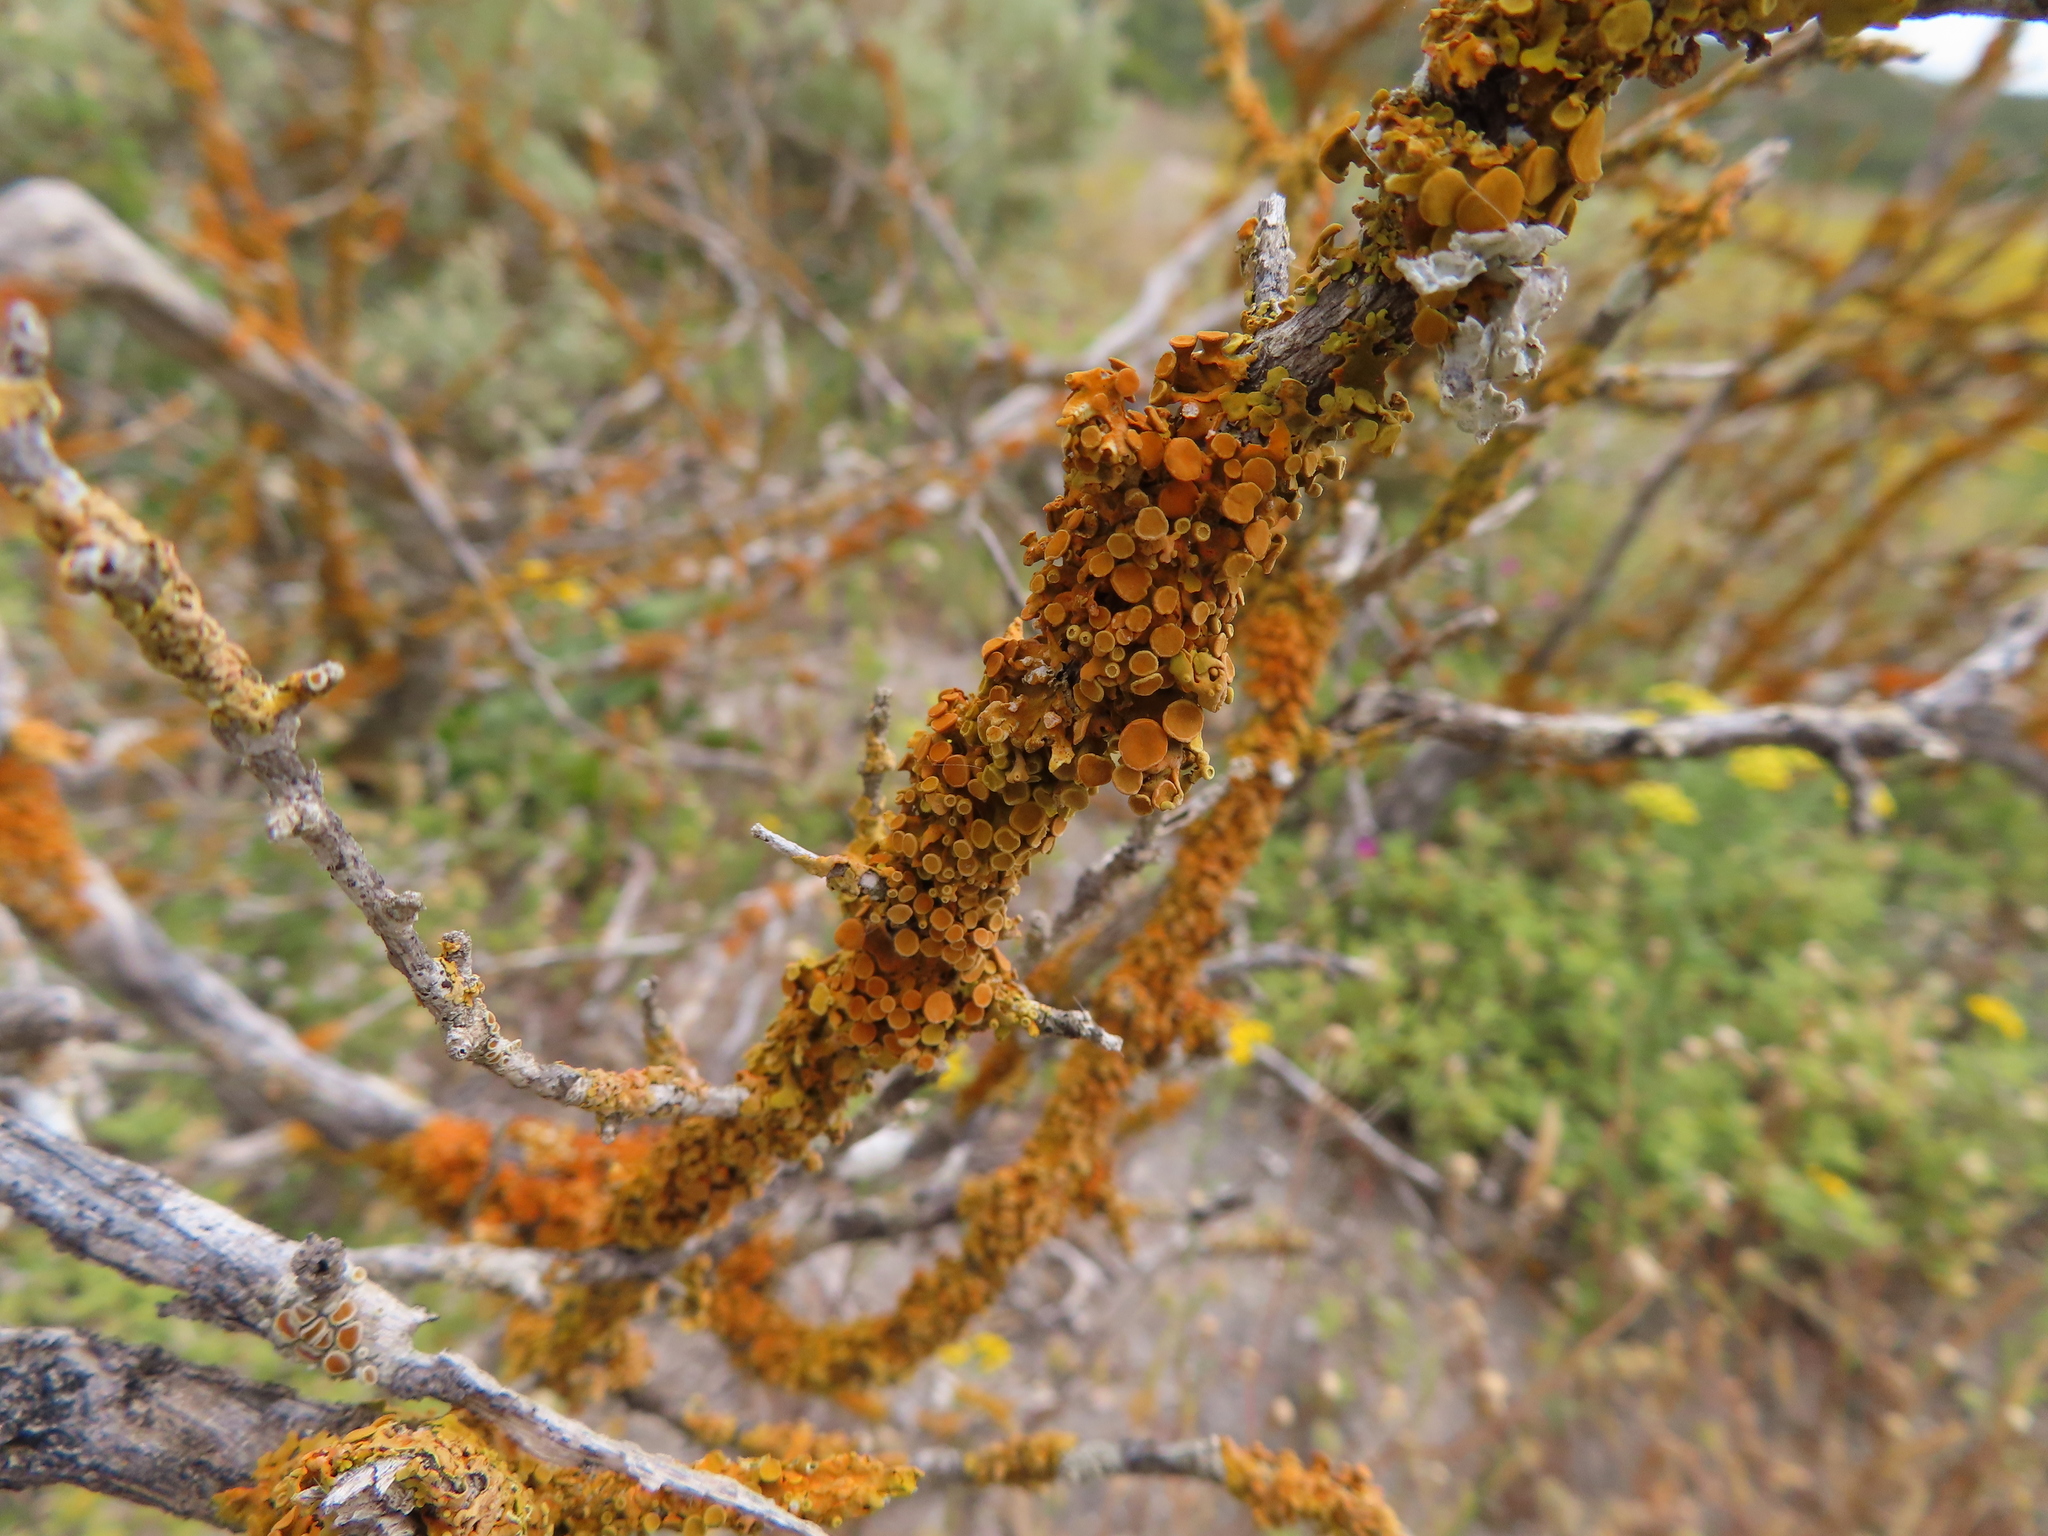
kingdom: Fungi
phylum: Ascomycota
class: Lecanoromycetes
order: Teloschistales
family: Teloschistaceae
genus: Dufourea
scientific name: Dufourea turbinata
